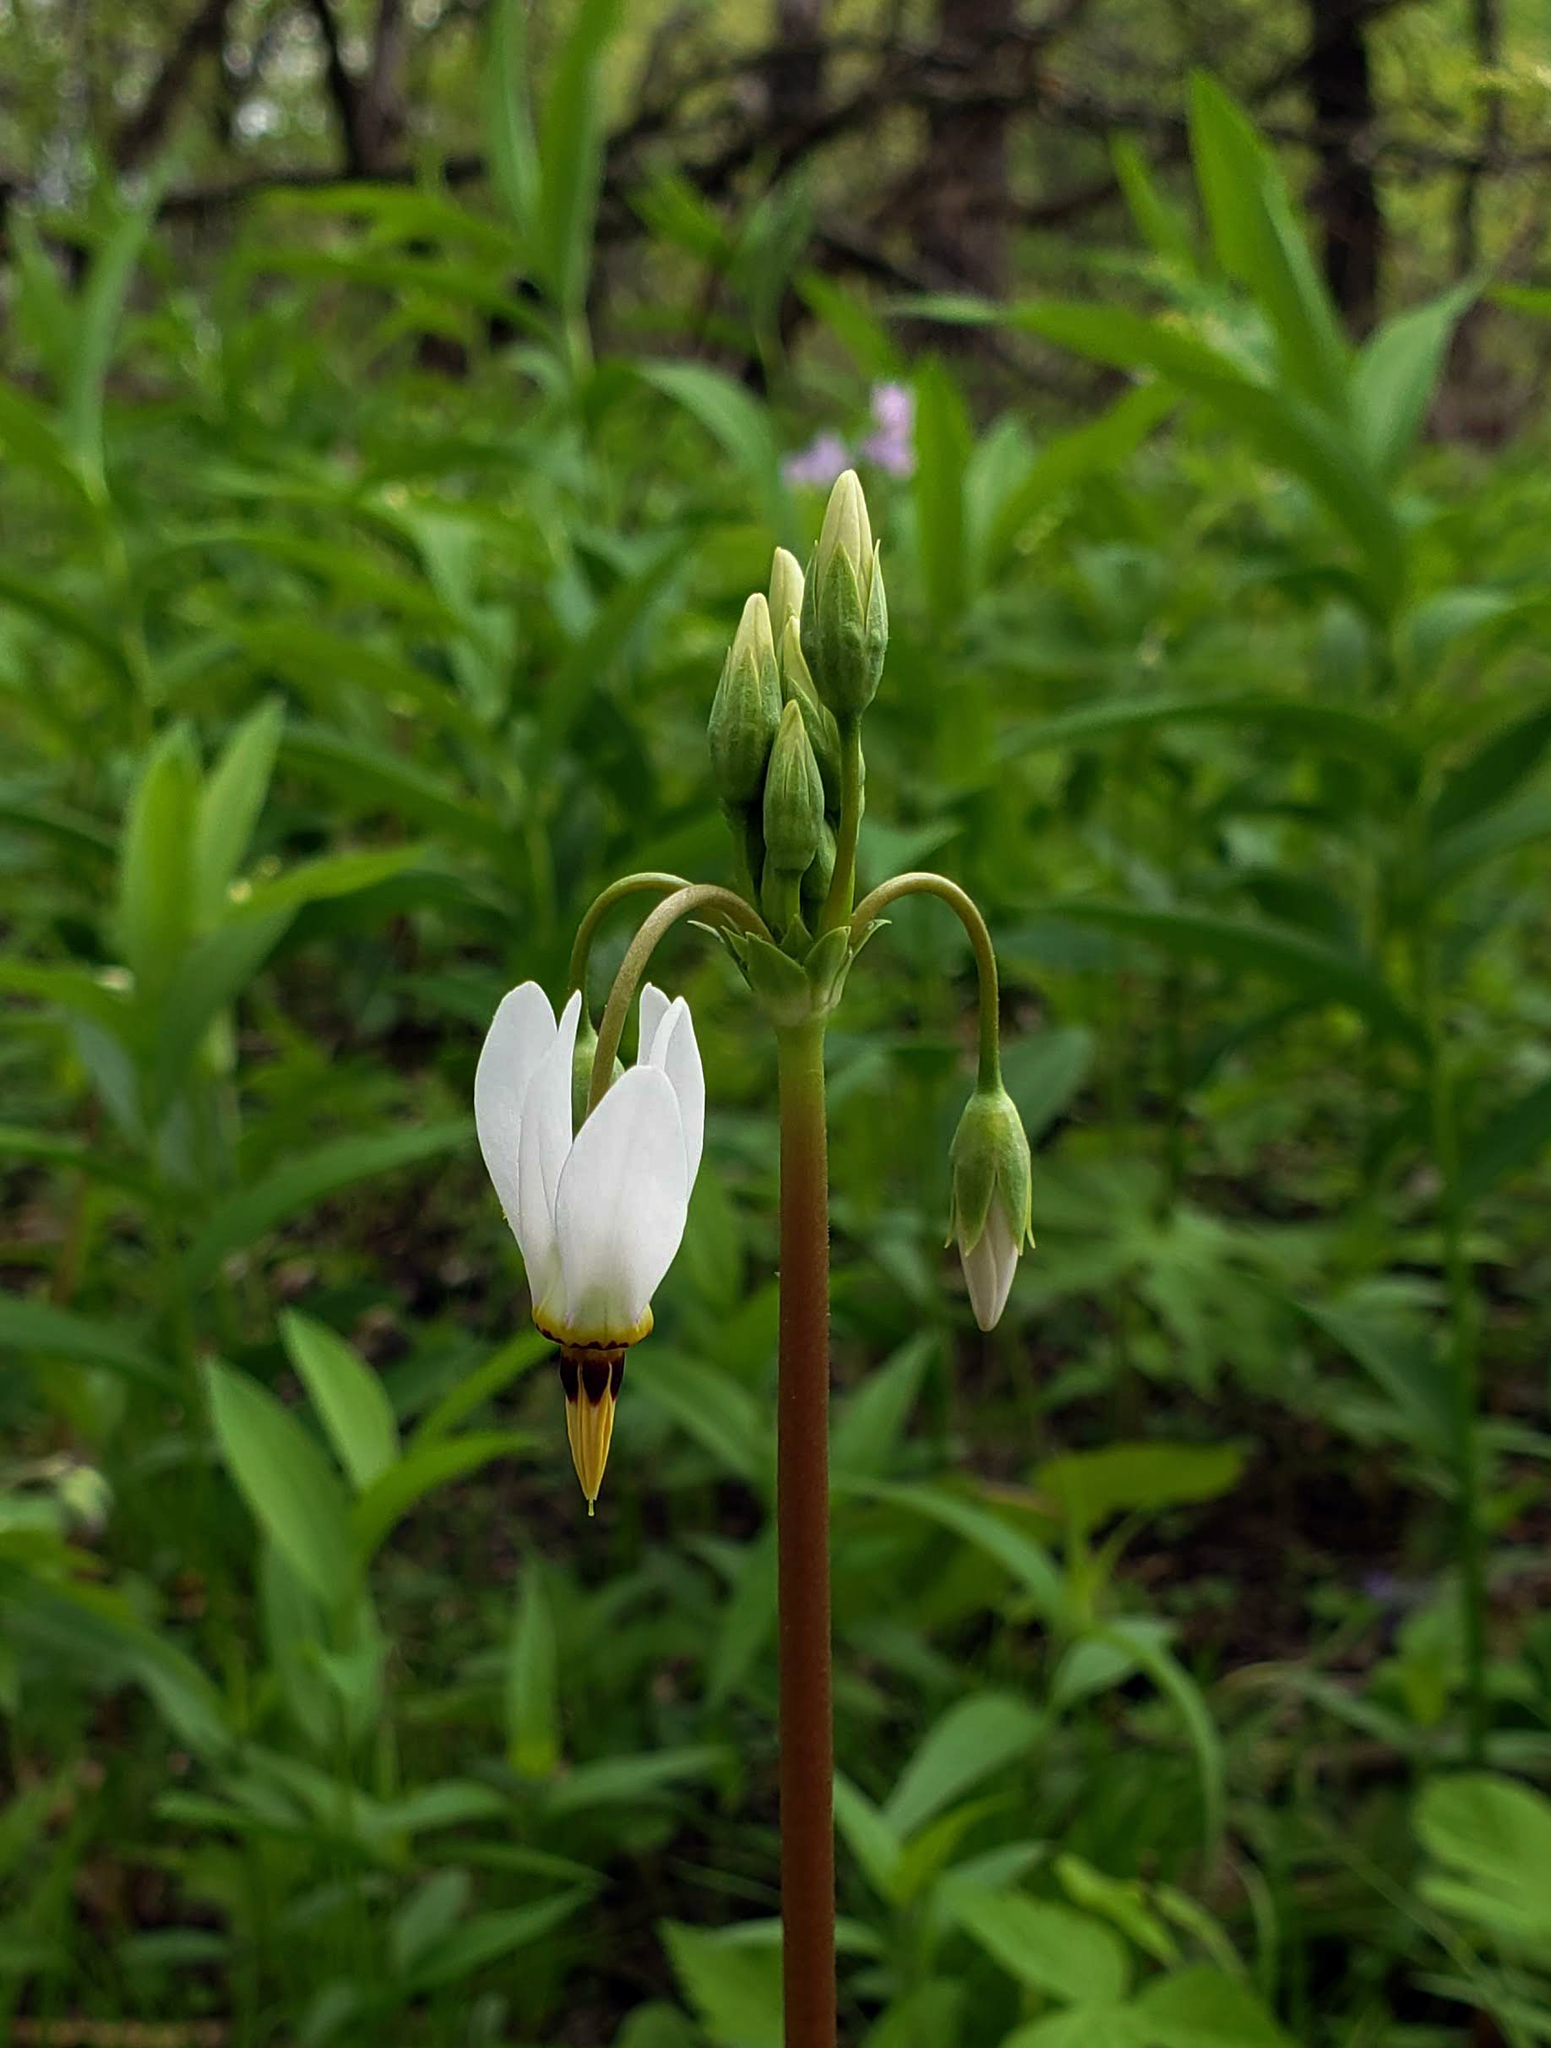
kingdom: Plantae
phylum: Tracheophyta
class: Magnoliopsida
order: Ericales
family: Primulaceae
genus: Dodecatheon
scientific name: Dodecatheon meadia
